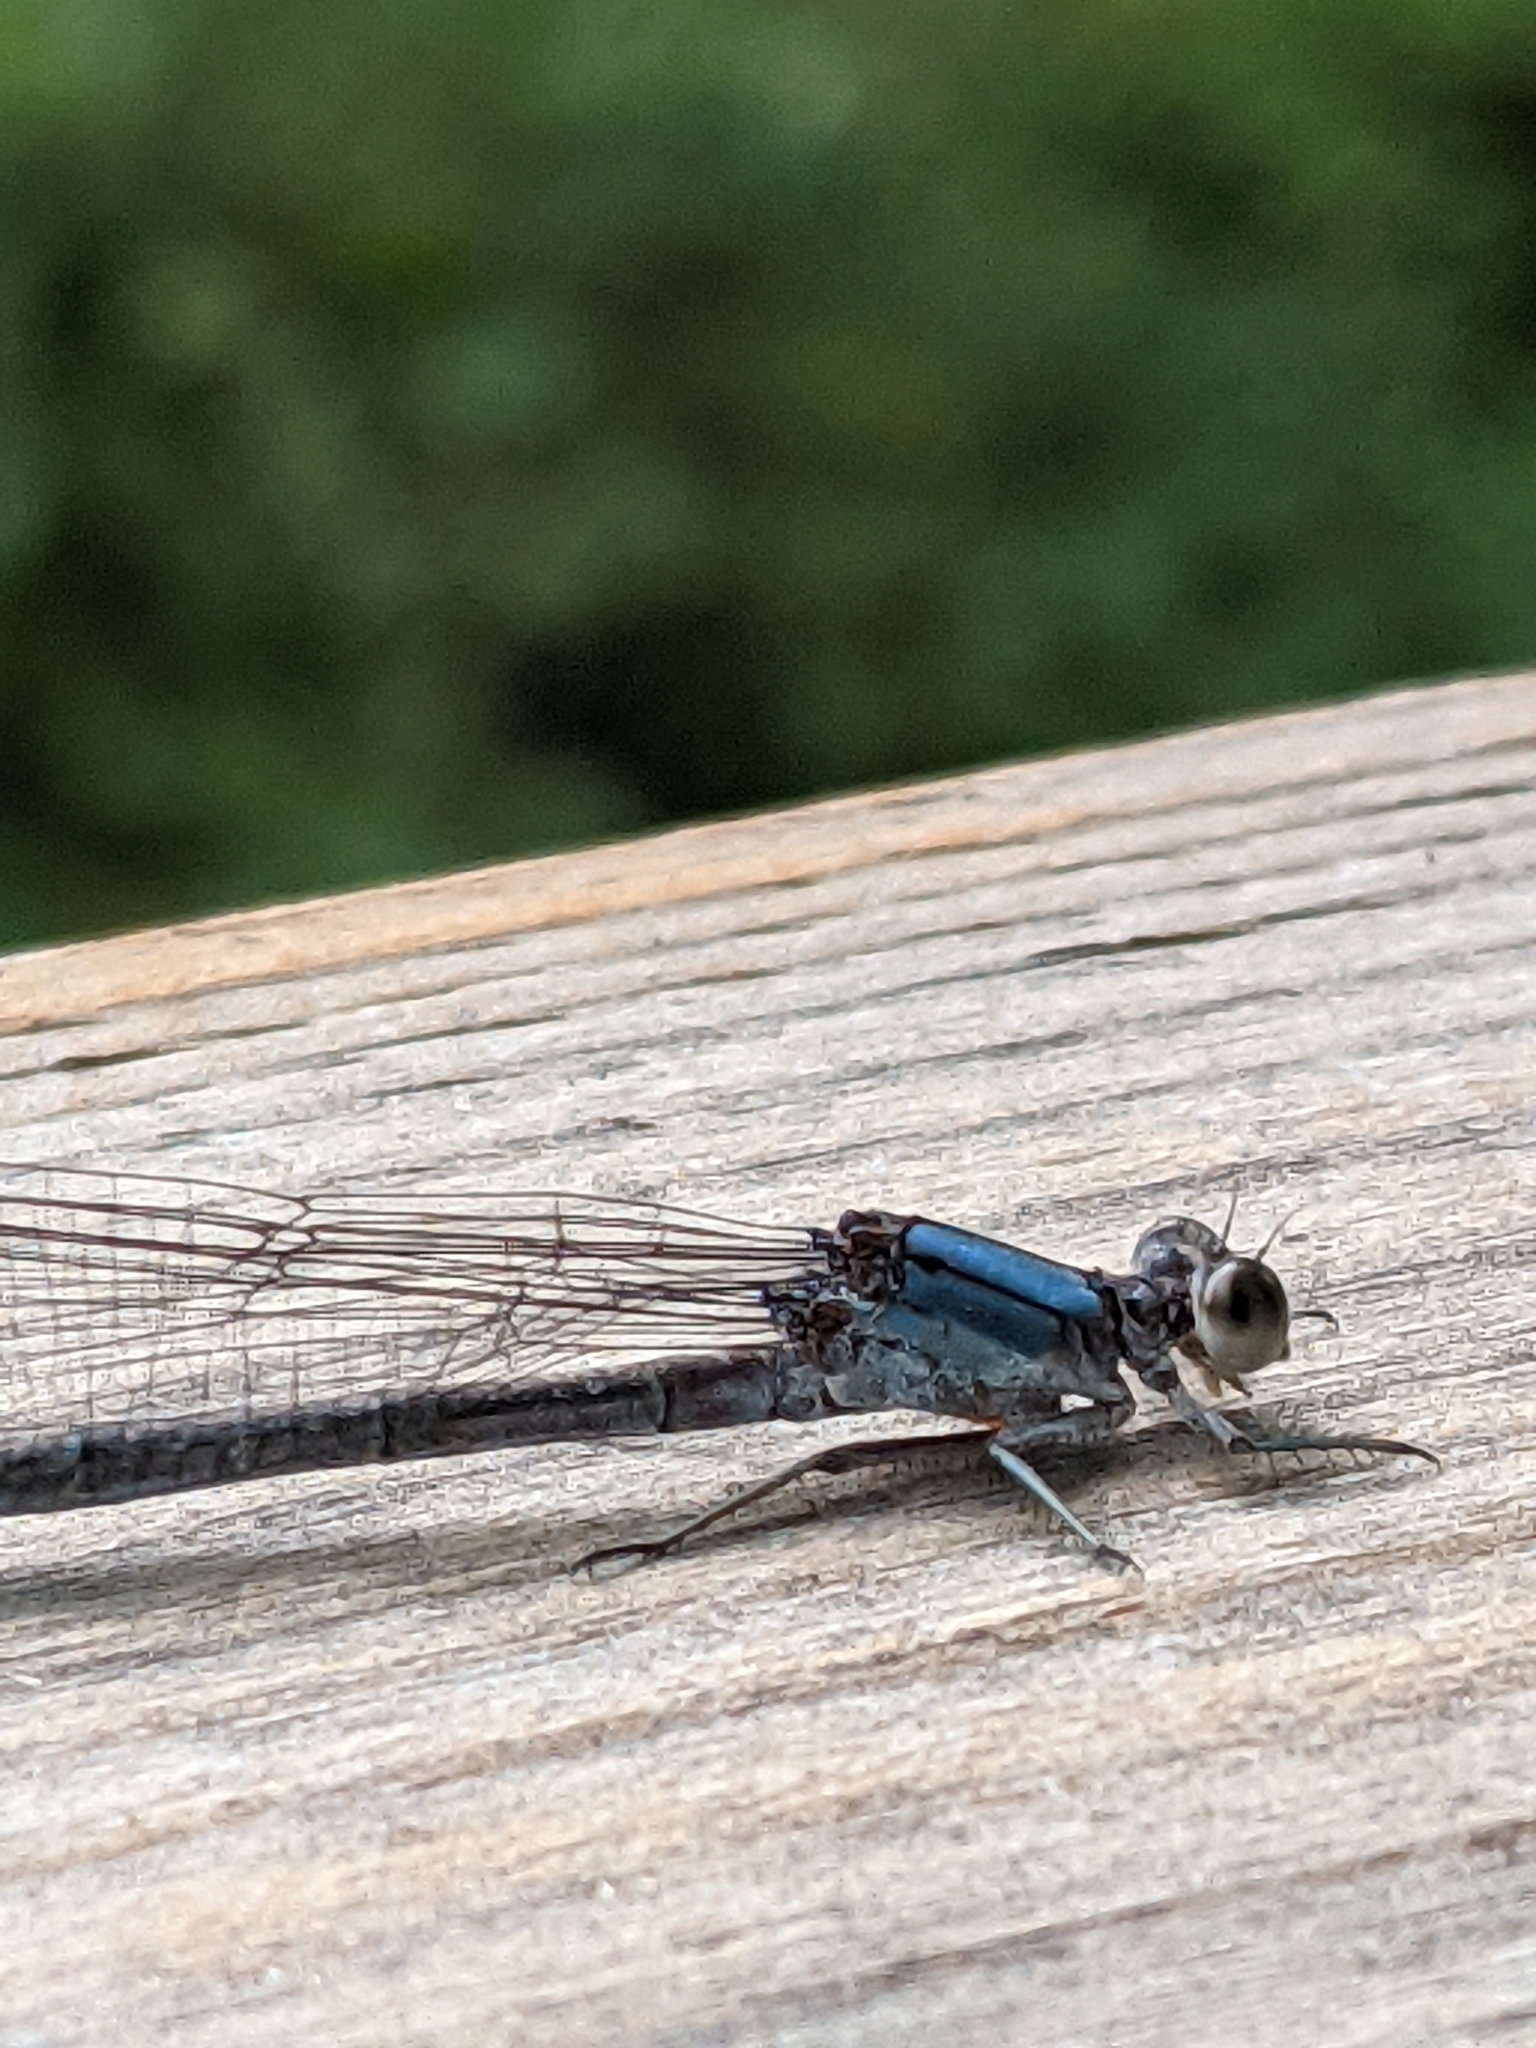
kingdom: Animalia
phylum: Arthropoda
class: Insecta
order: Odonata
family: Coenagrionidae
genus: Argia
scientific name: Argia moesta
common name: Powdered dancer
